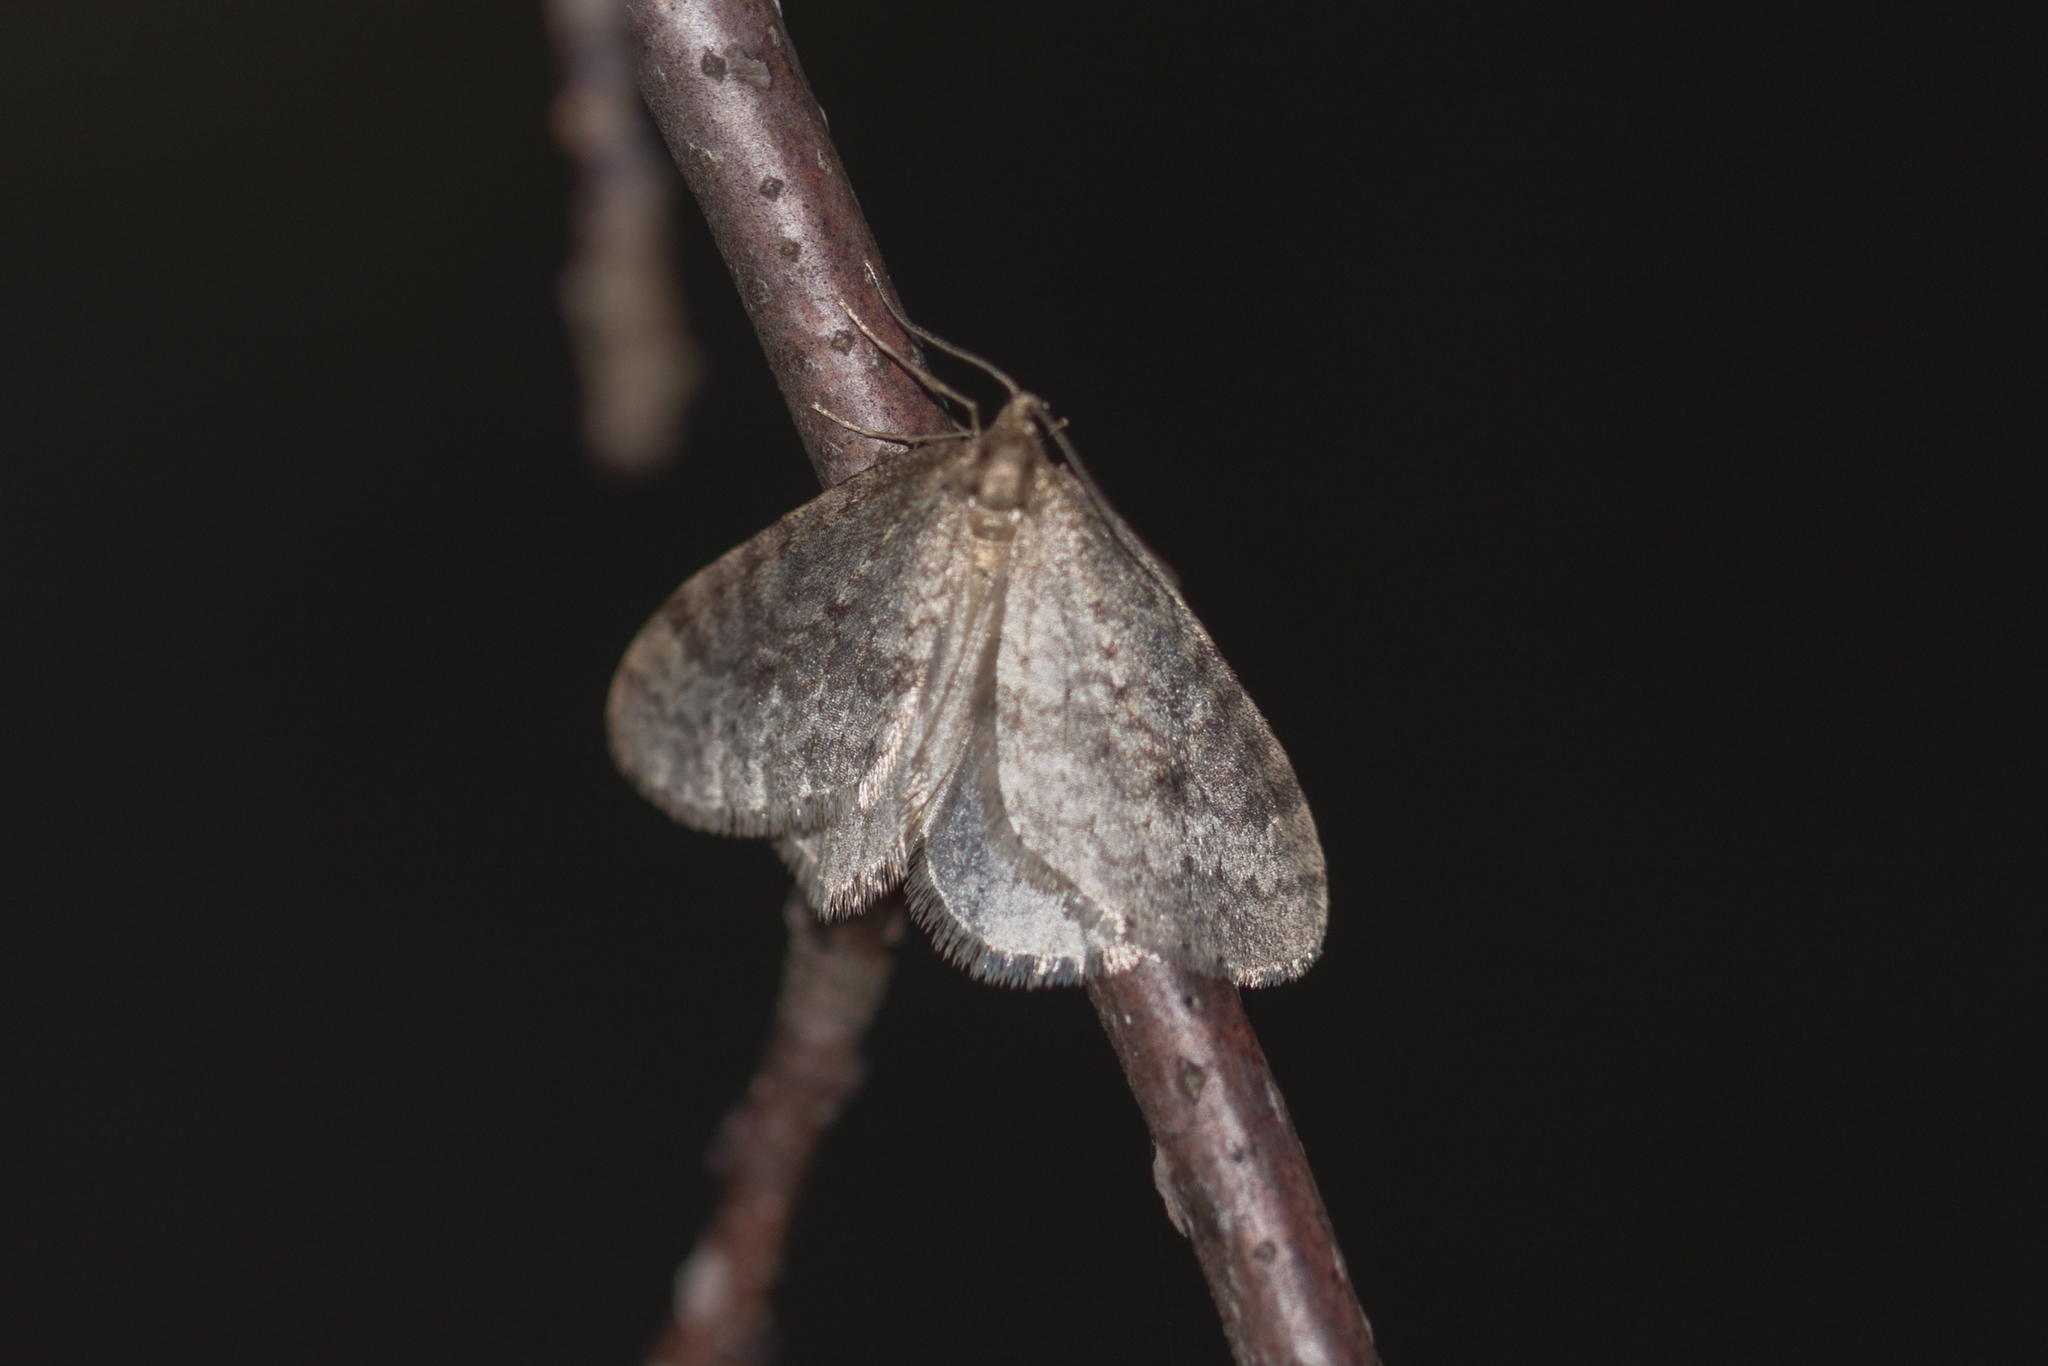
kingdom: Animalia
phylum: Arthropoda
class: Insecta
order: Lepidoptera
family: Geometridae
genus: Operophtera
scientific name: Operophtera bruceata
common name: Bruce spanworm
